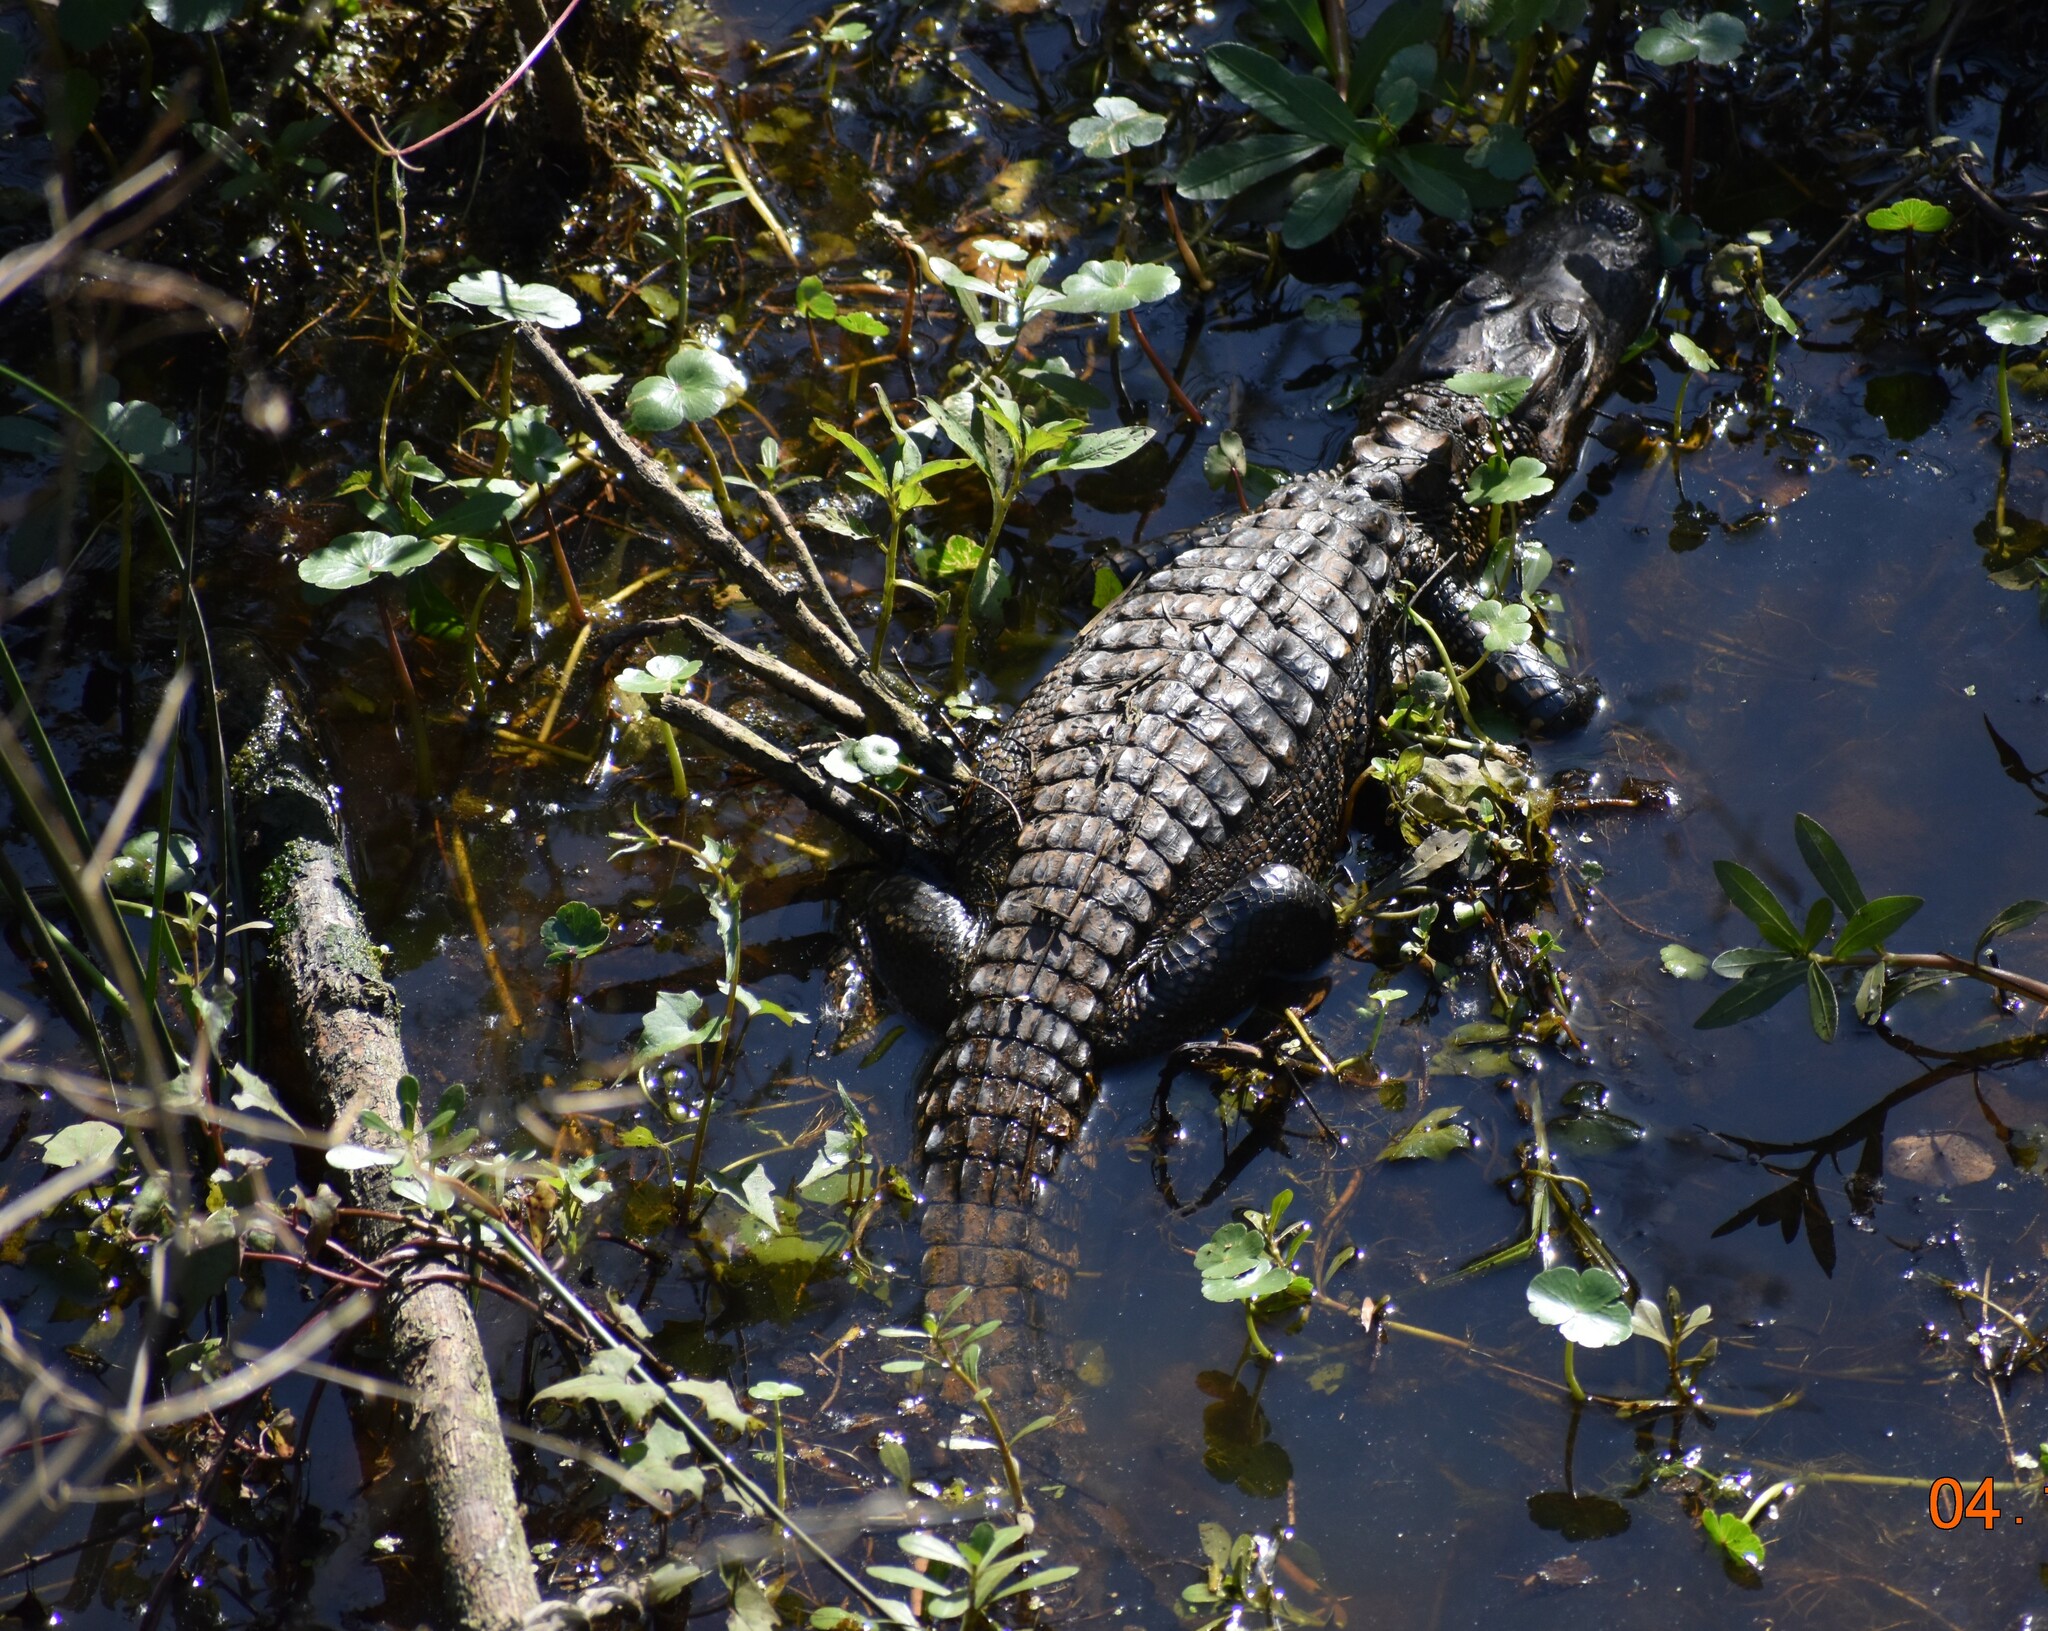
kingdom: Animalia
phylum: Chordata
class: Crocodylia
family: Alligatoridae
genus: Alligator
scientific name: Alligator mississippiensis
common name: American alligator
